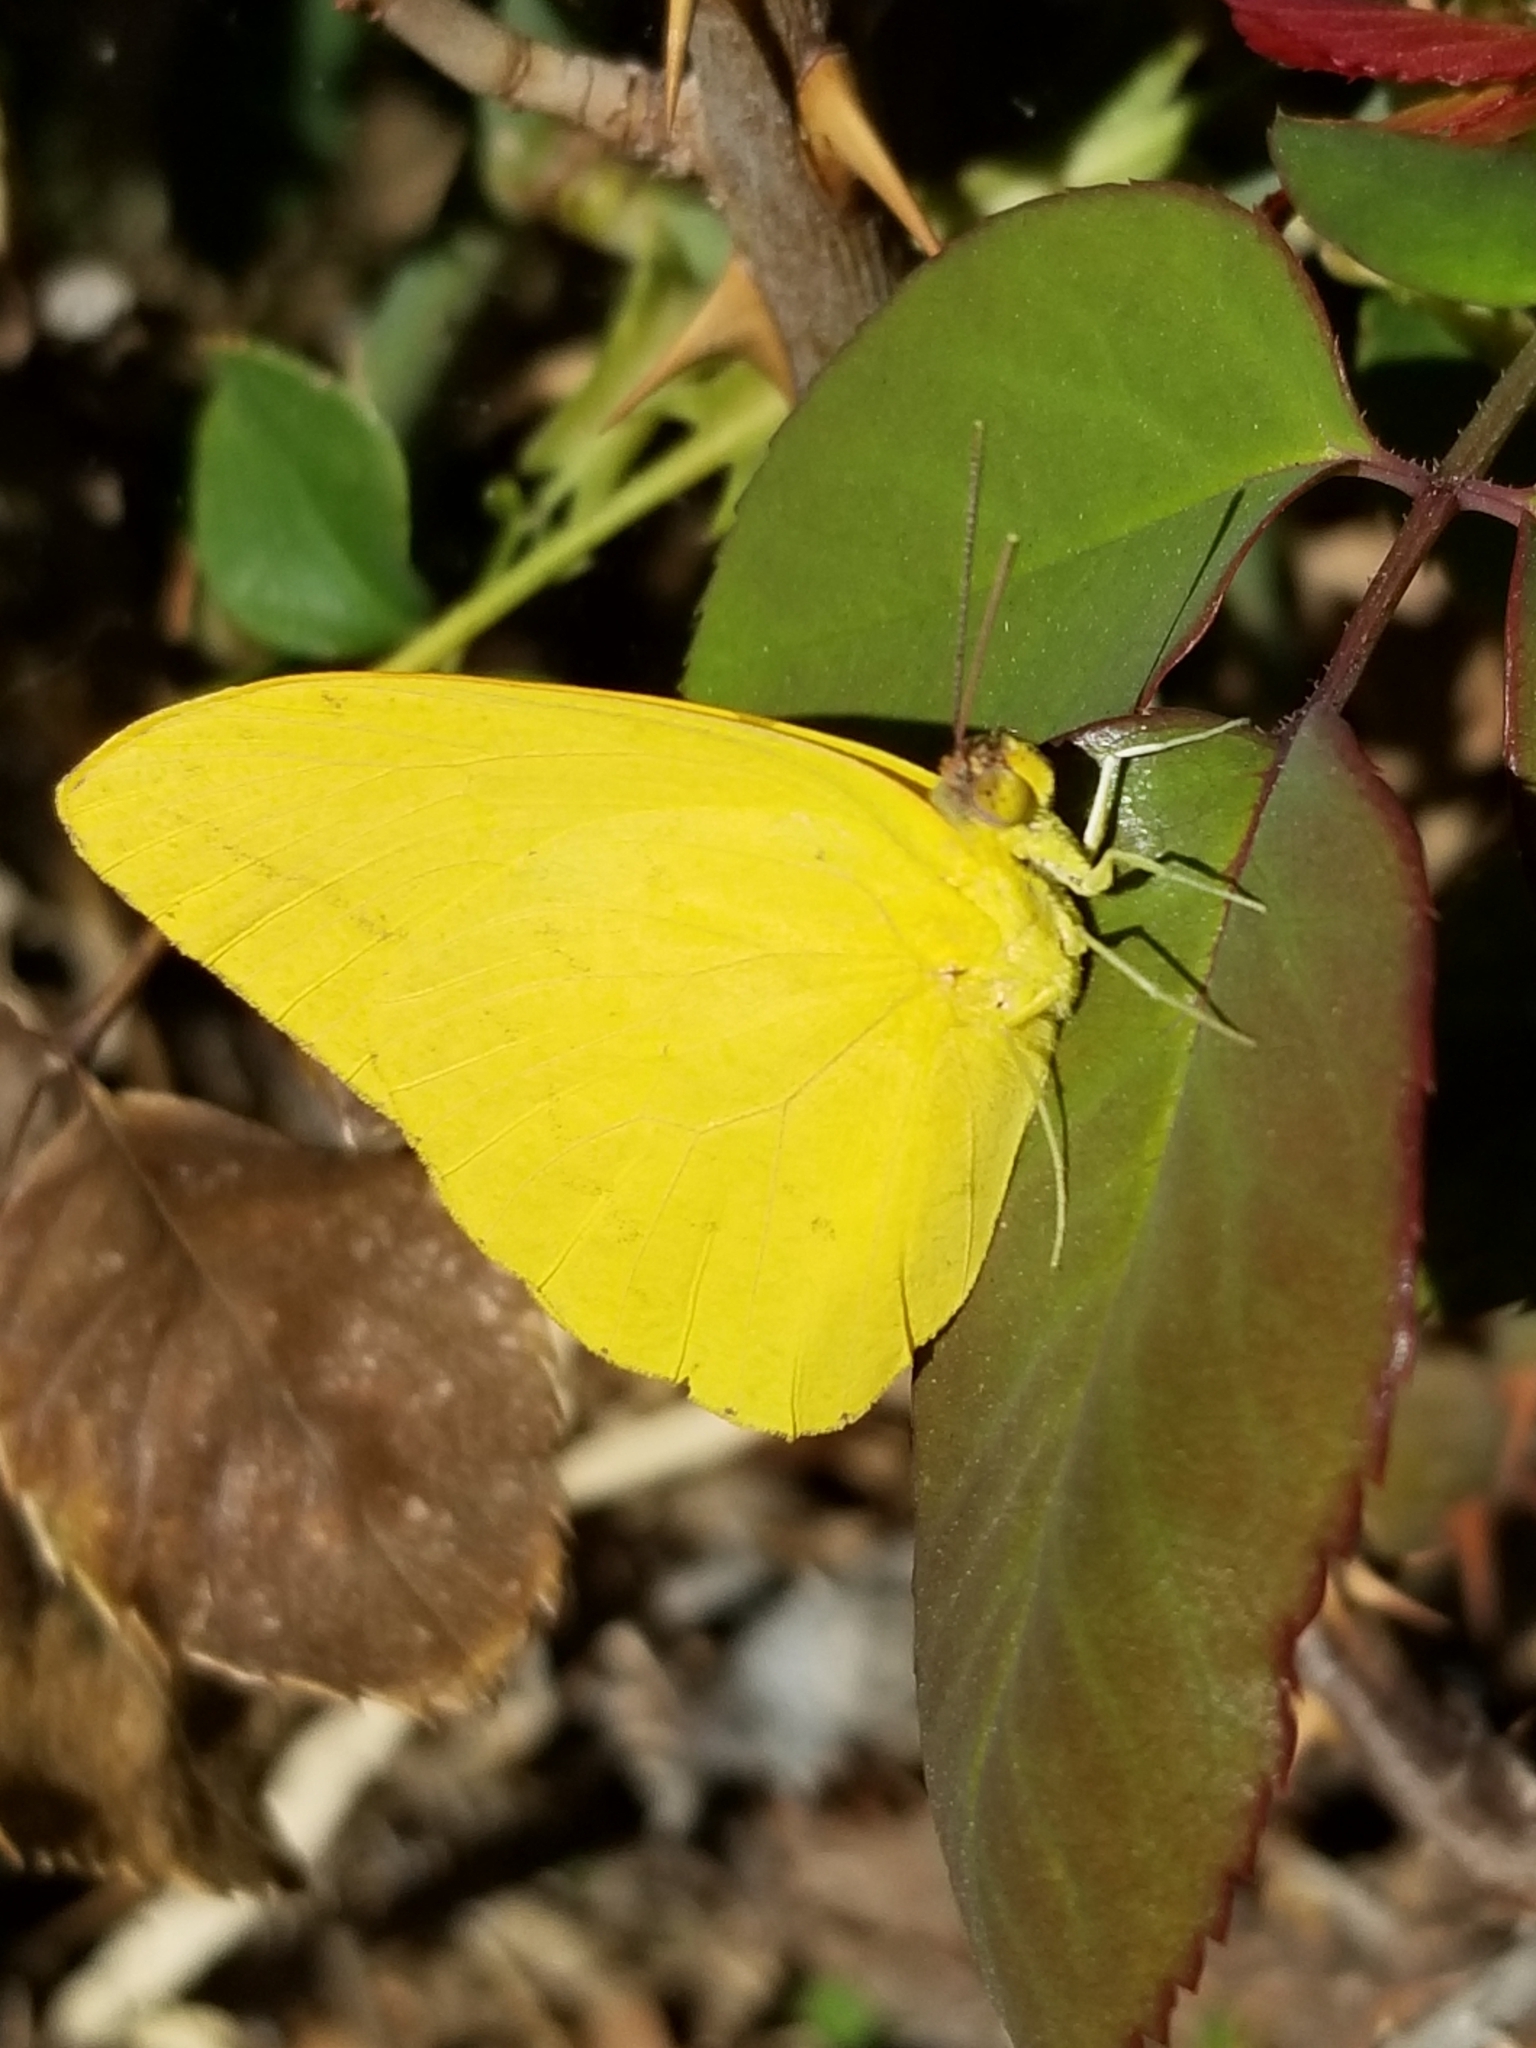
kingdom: Animalia
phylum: Arthropoda
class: Insecta
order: Lepidoptera
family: Pieridae
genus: Phoebis
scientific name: Phoebis agarithe
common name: Large orange sulphur
